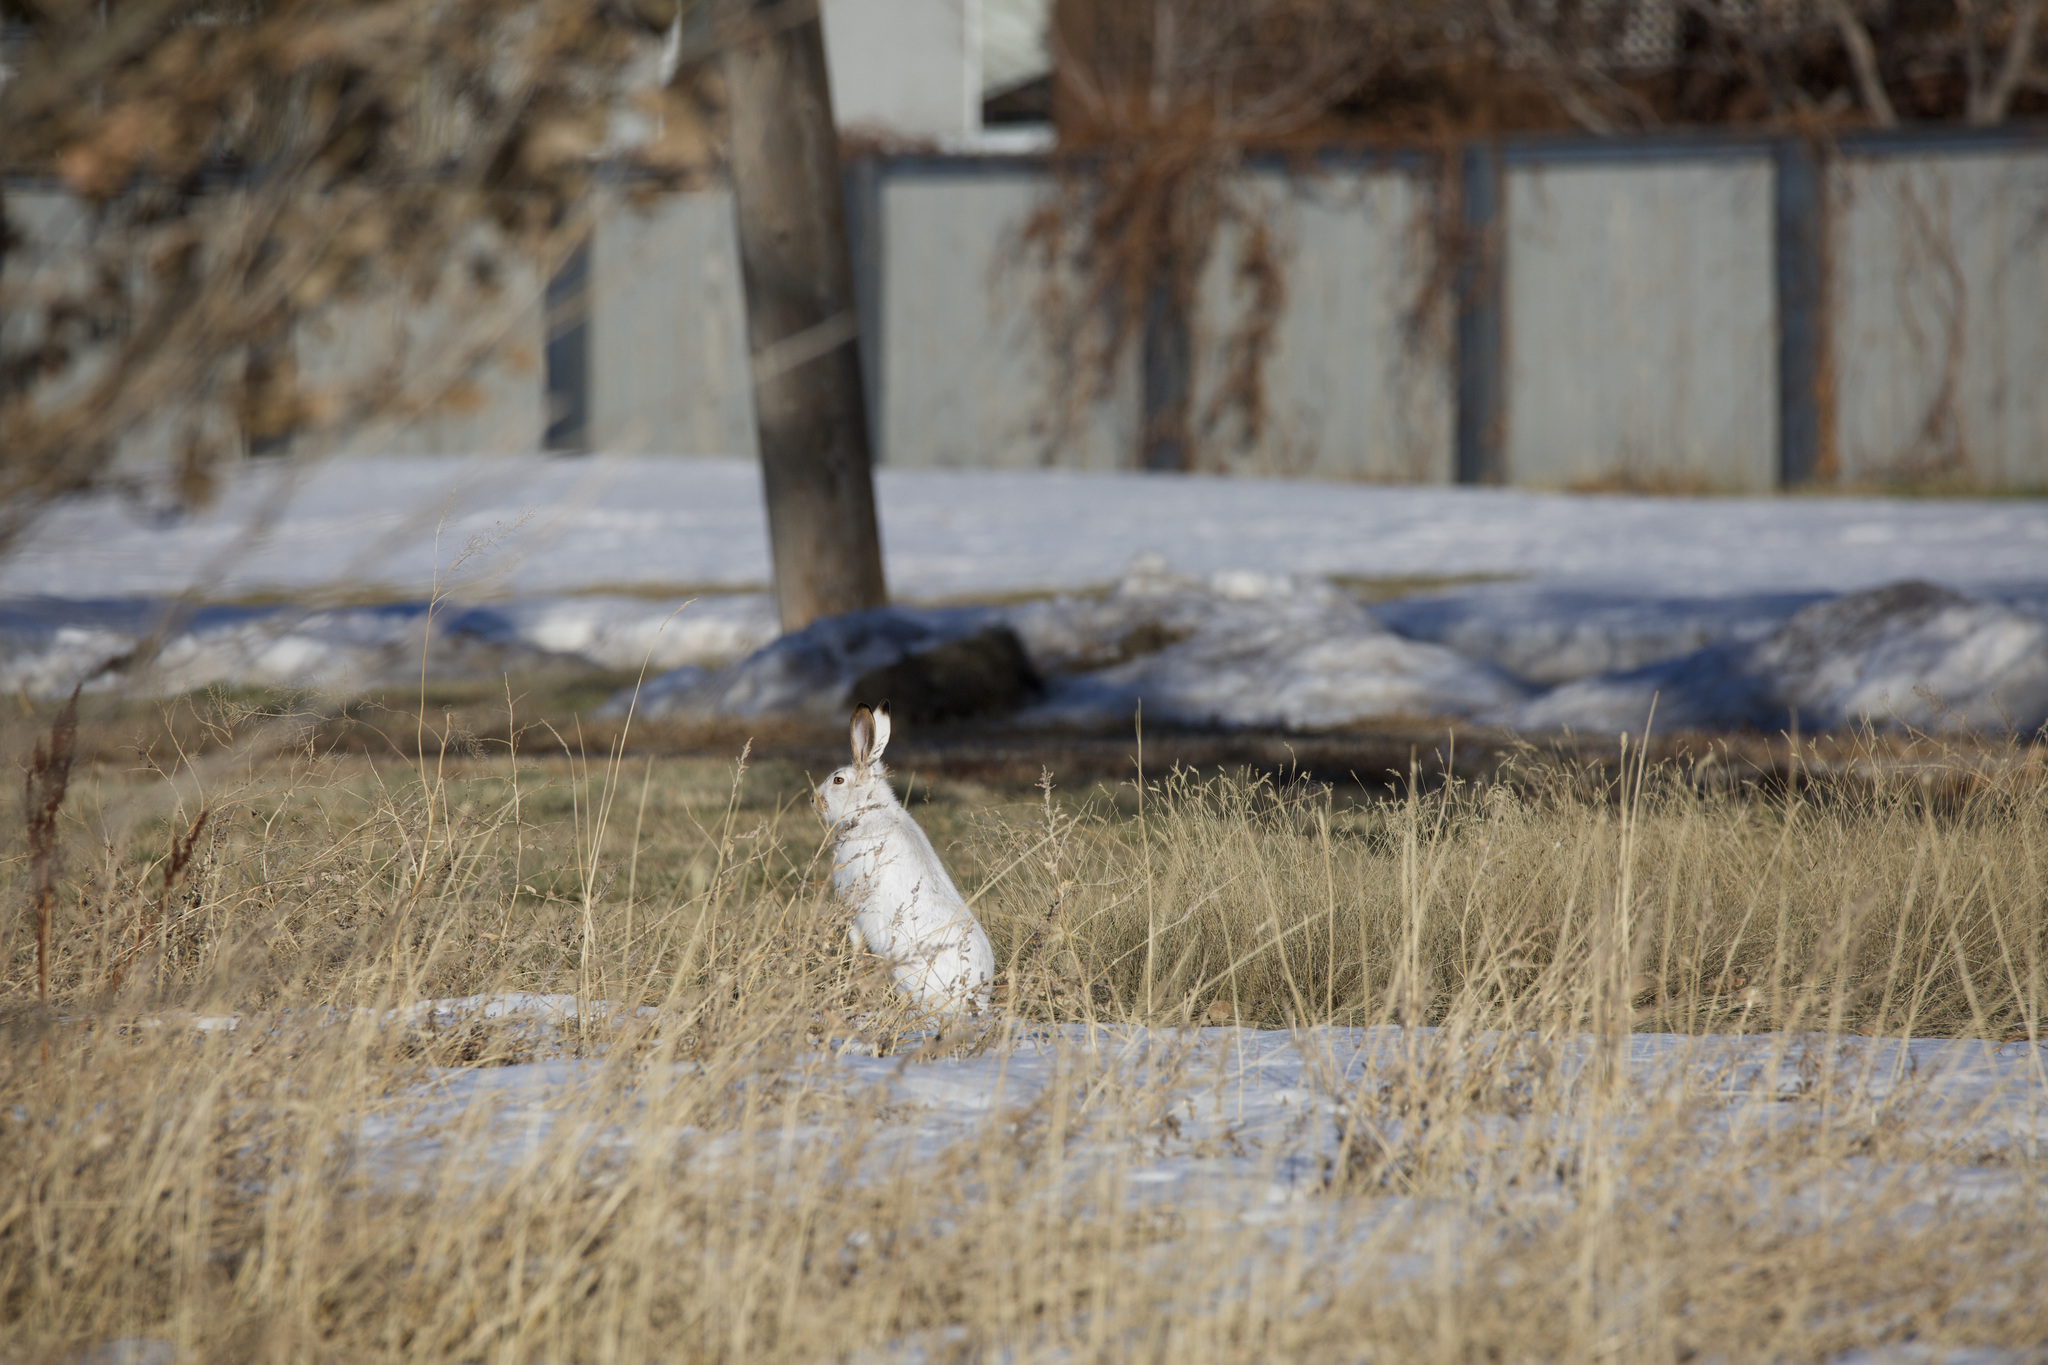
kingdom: Animalia
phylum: Chordata
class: Mammalia
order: Lagomorpha
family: Leporidae
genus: Lepus
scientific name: Lepus townsendii
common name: White-tailed jackrabbit
